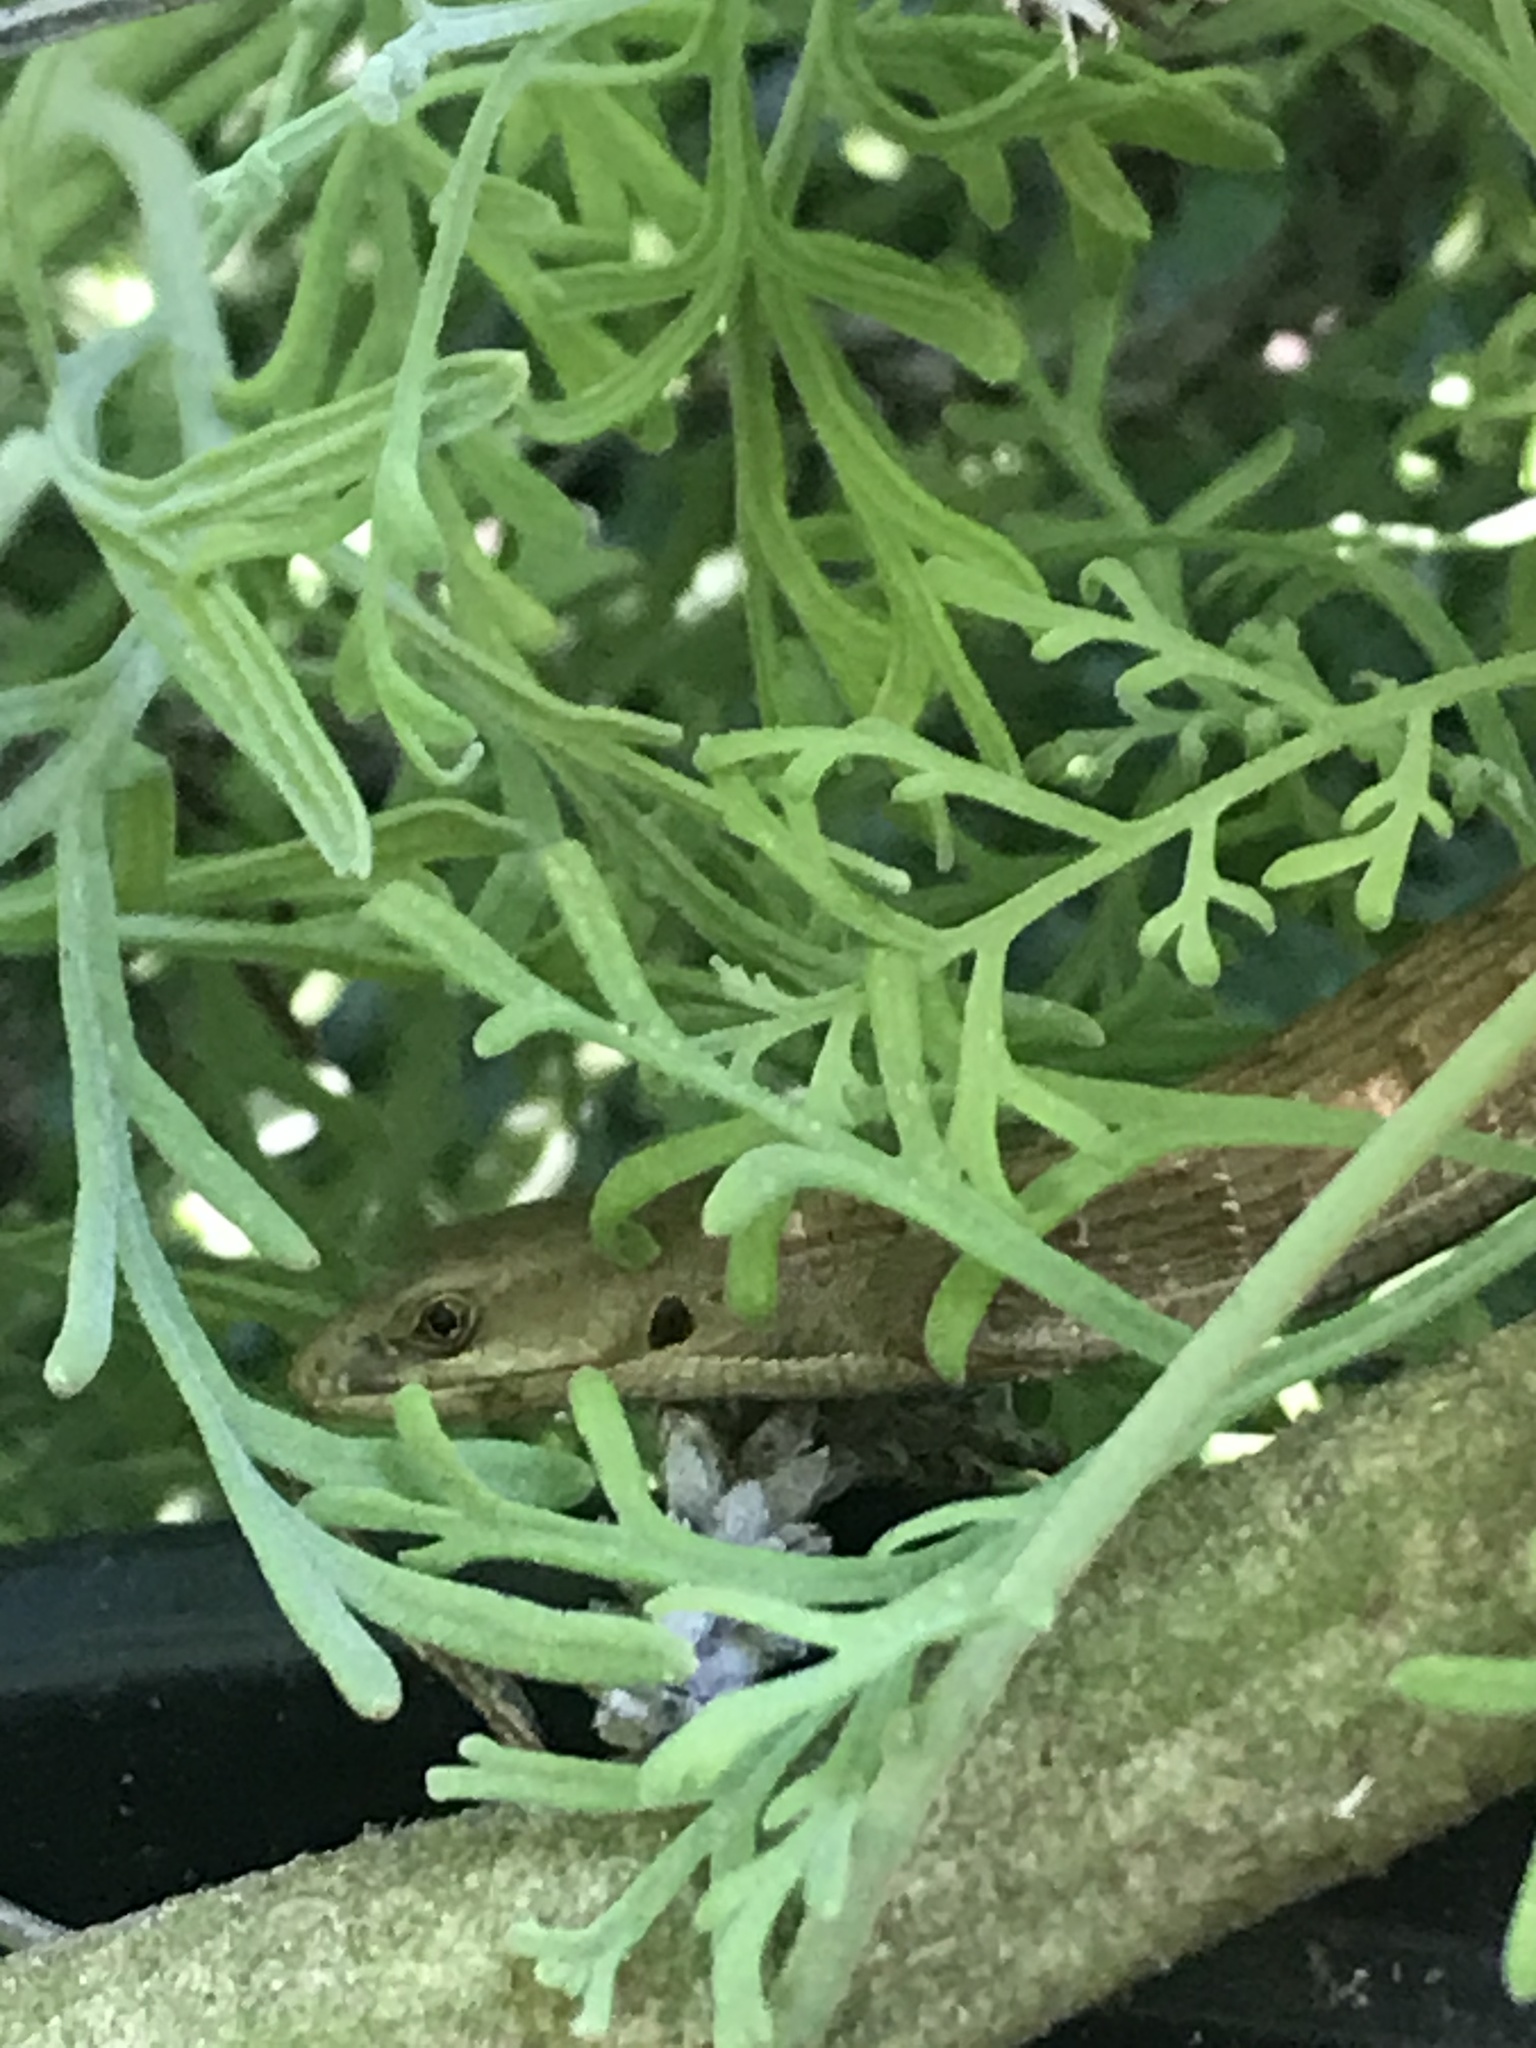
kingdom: Animalia
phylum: Chordata
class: Squamata
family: Anguidae
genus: Elgaria
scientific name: Elgaria multicarinata
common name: Southern alligator lizard
